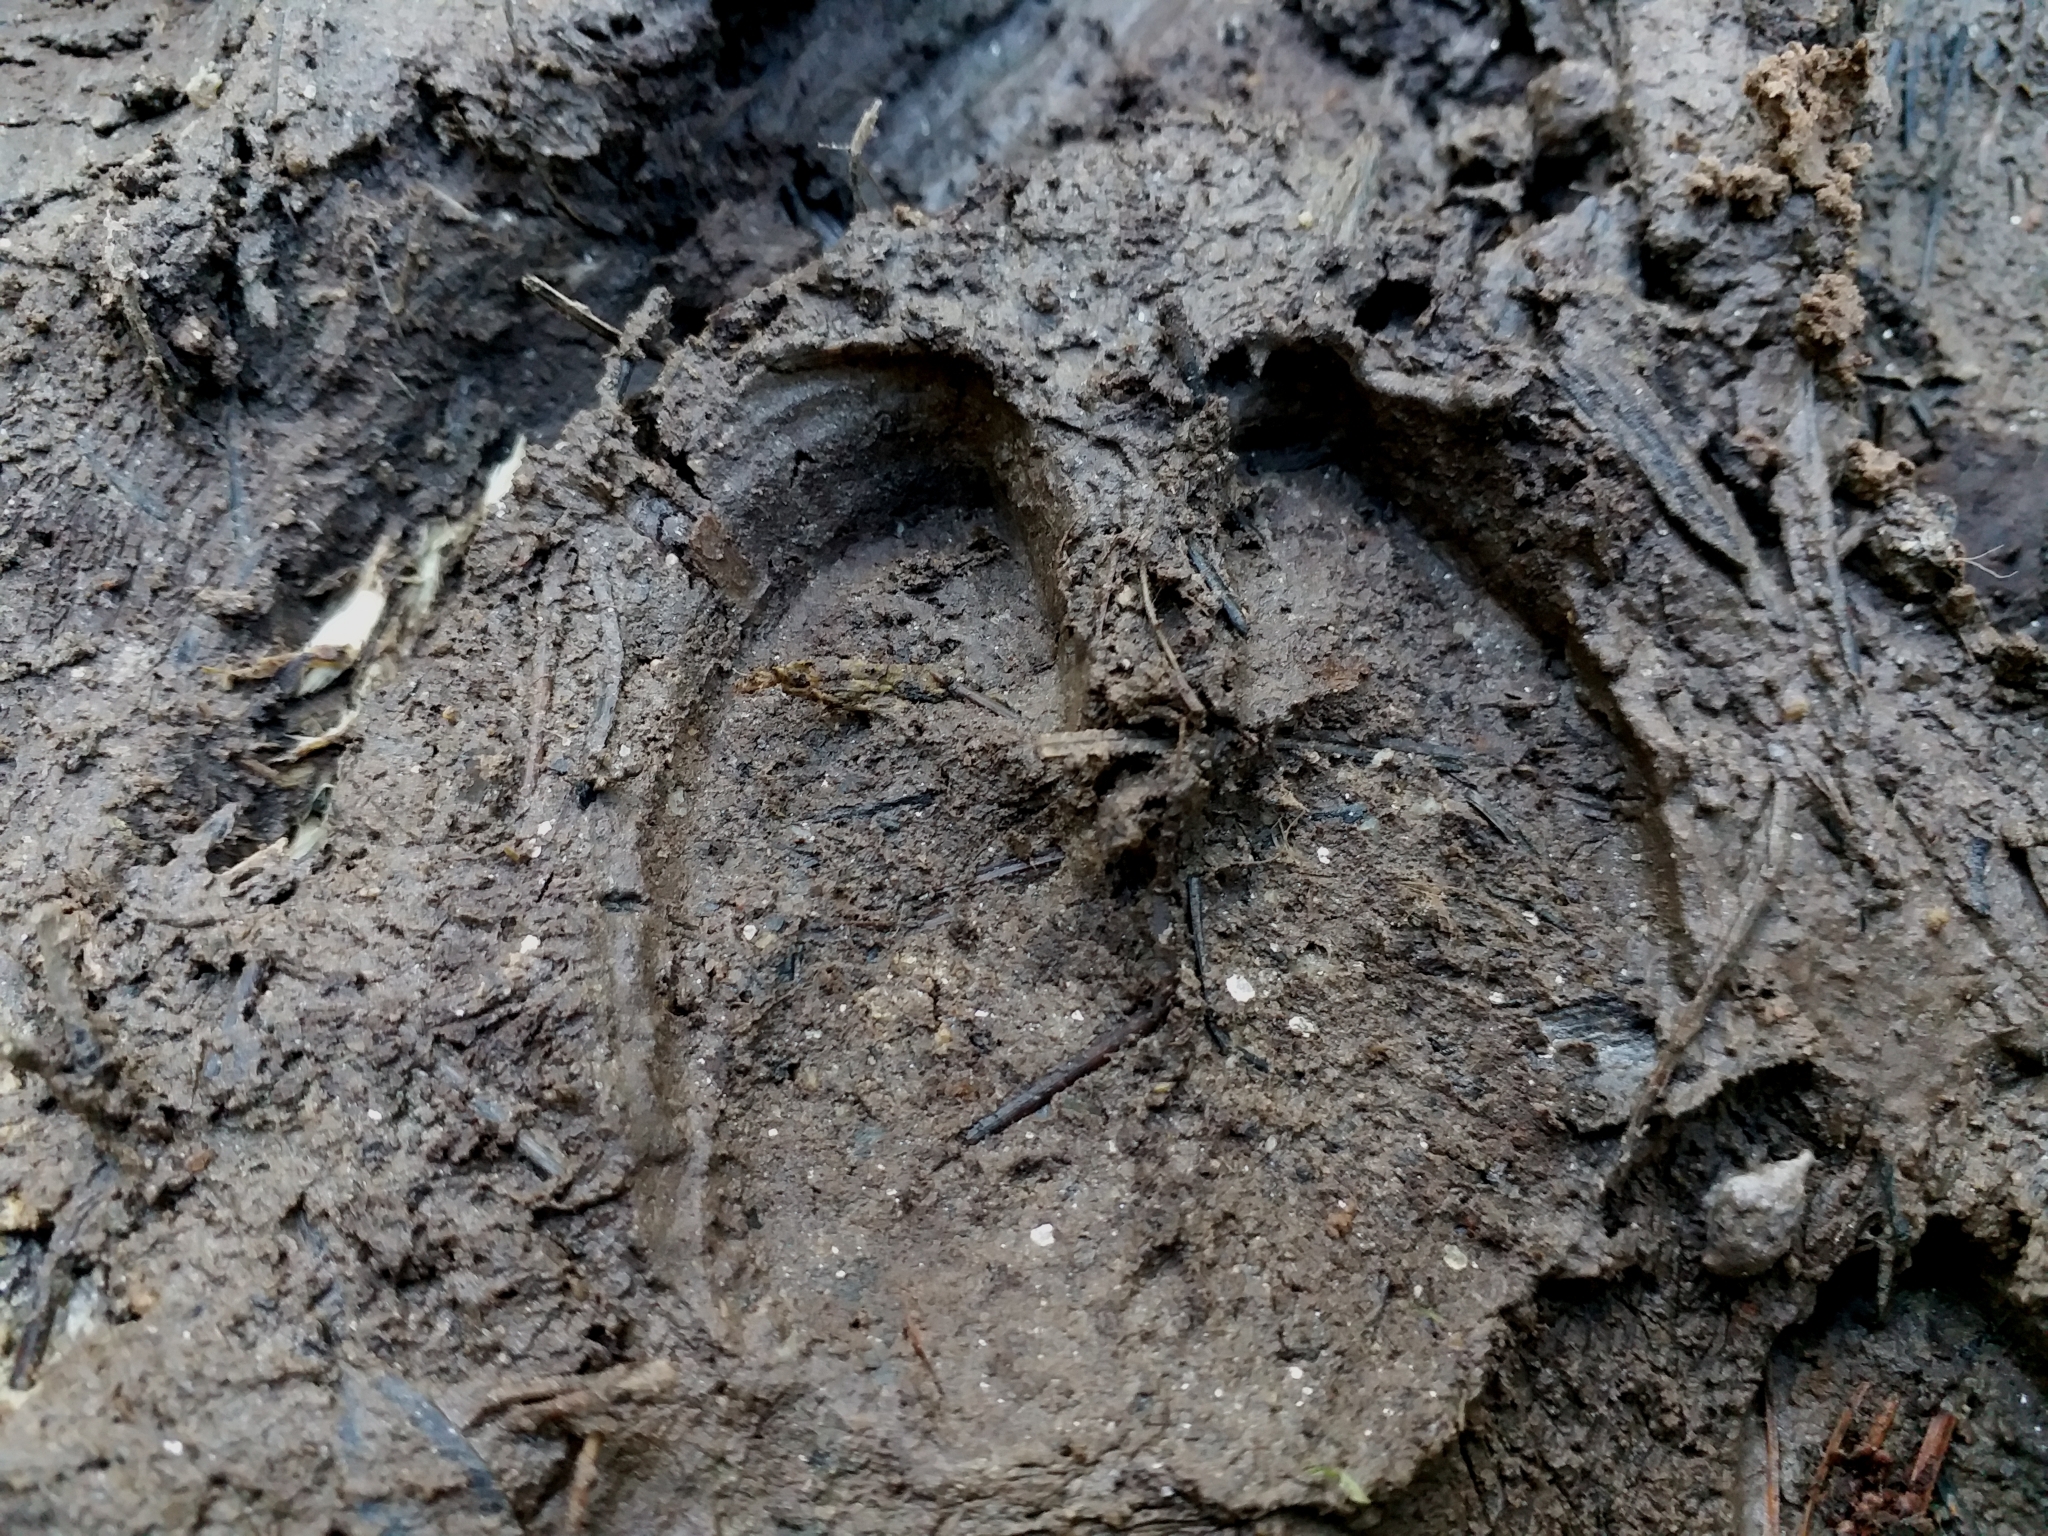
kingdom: Animalia
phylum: Chordata
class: Mammalia
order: Artiodactyla
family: Suidae
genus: Potamochoerus
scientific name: Potamochoerus larvatus
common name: Bushpig
